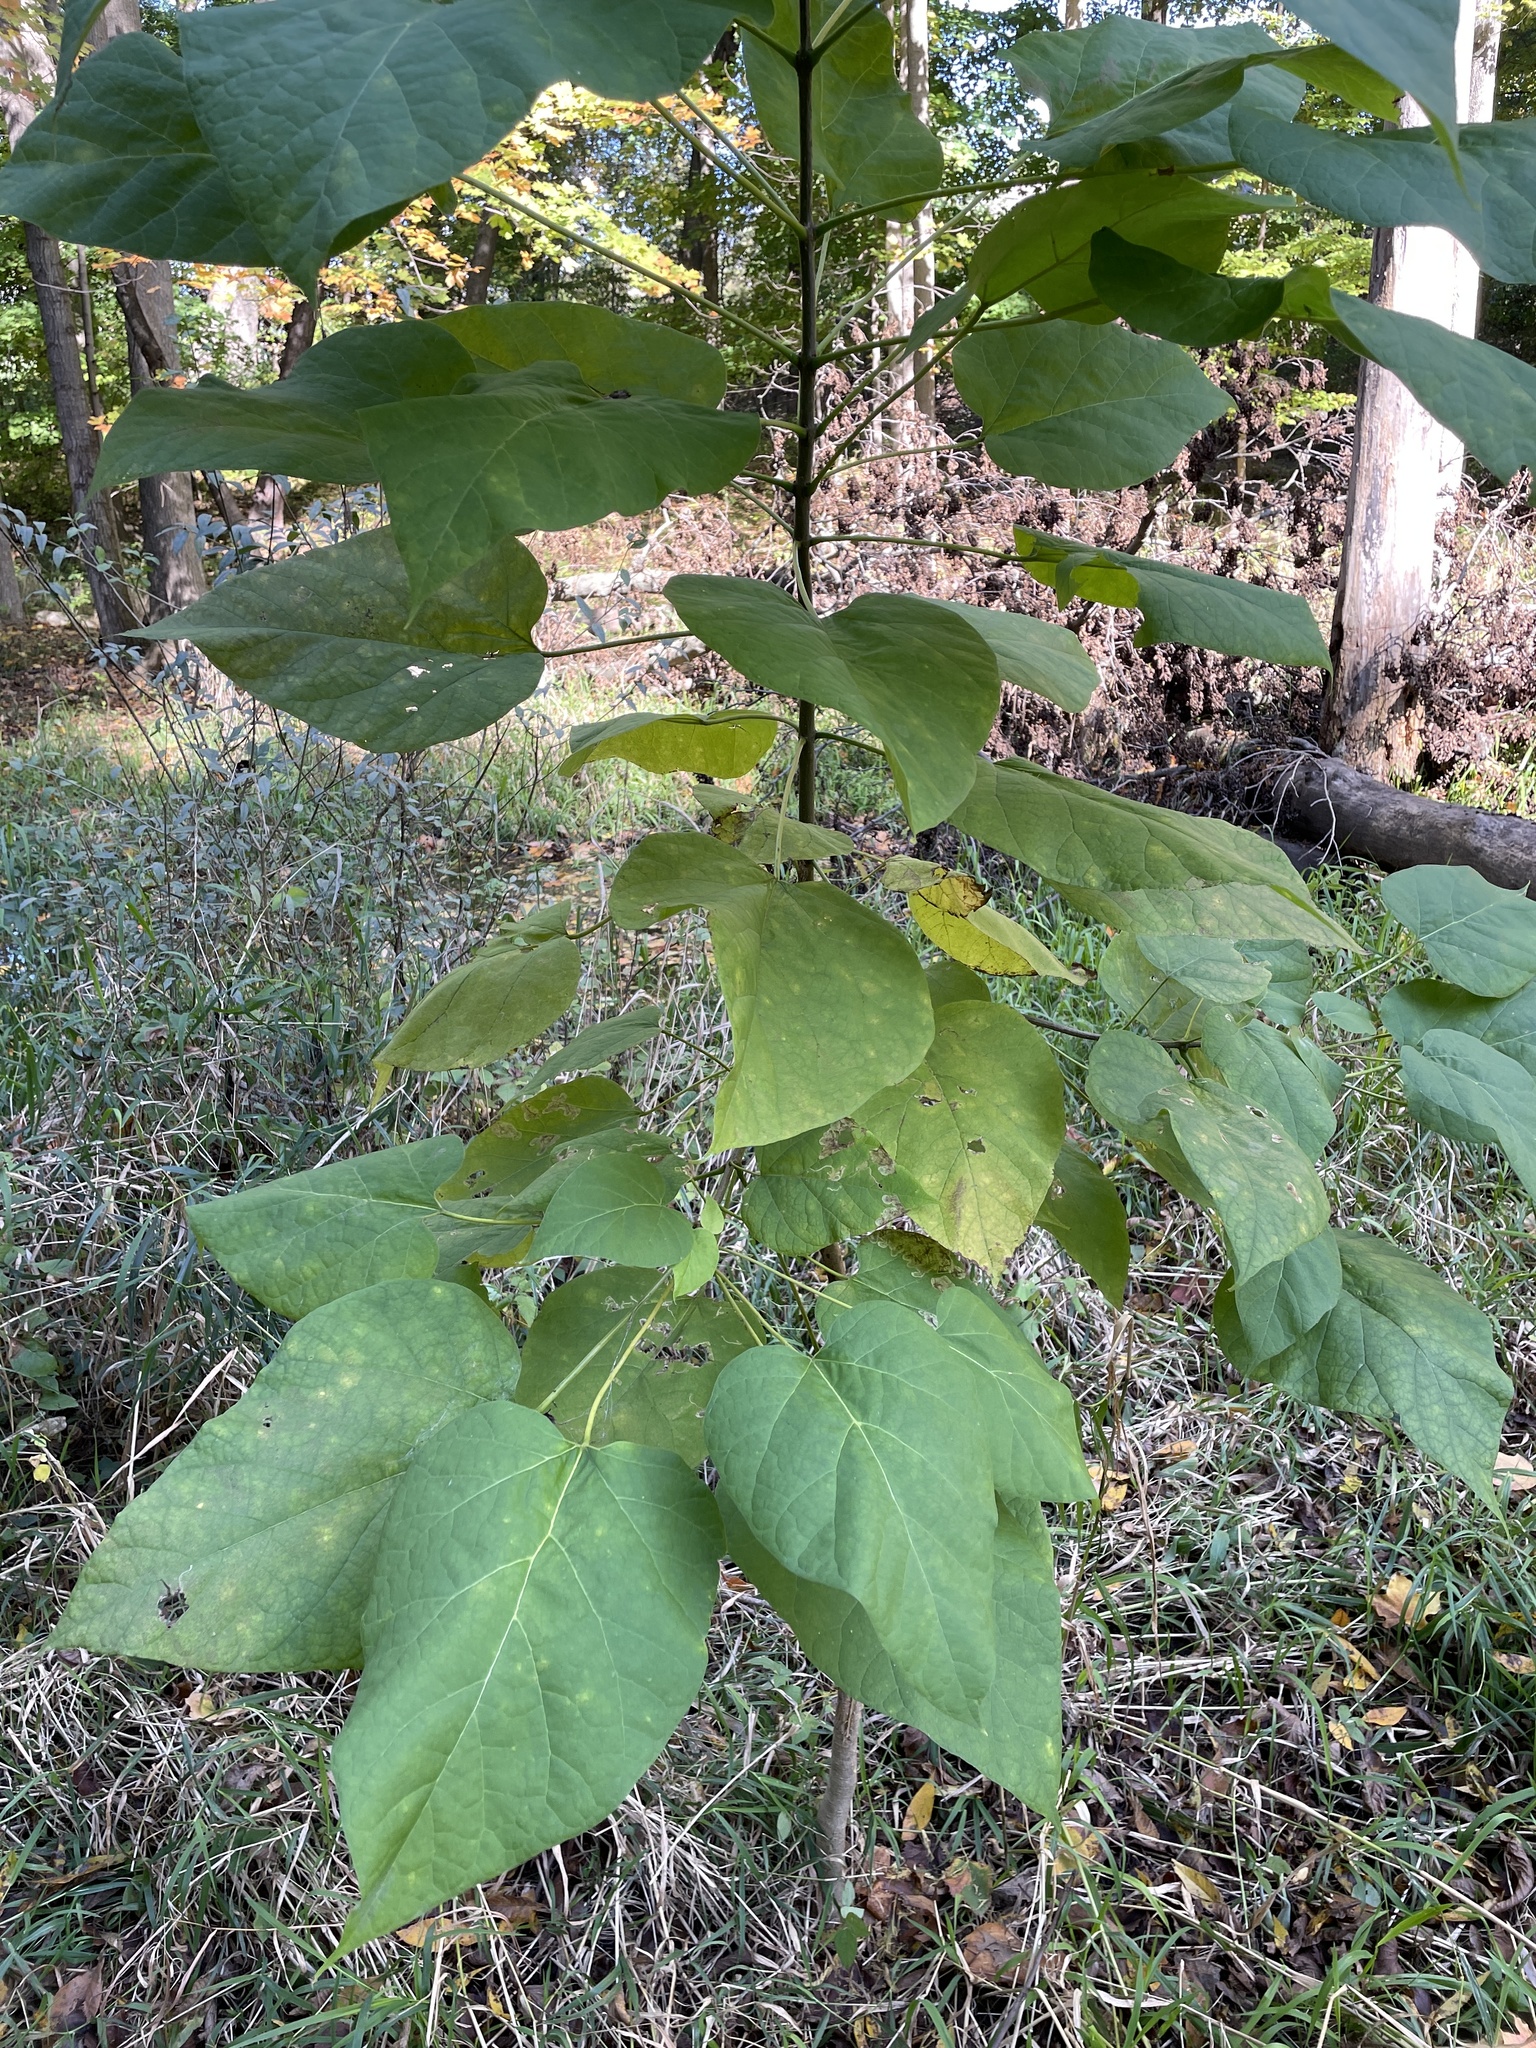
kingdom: Plantae
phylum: Tracheophyta
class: Magnoliopsida
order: Lamiales
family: Bignoniaceae
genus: Catalpa
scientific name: Catalpa speciosa
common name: Northern catalpa
